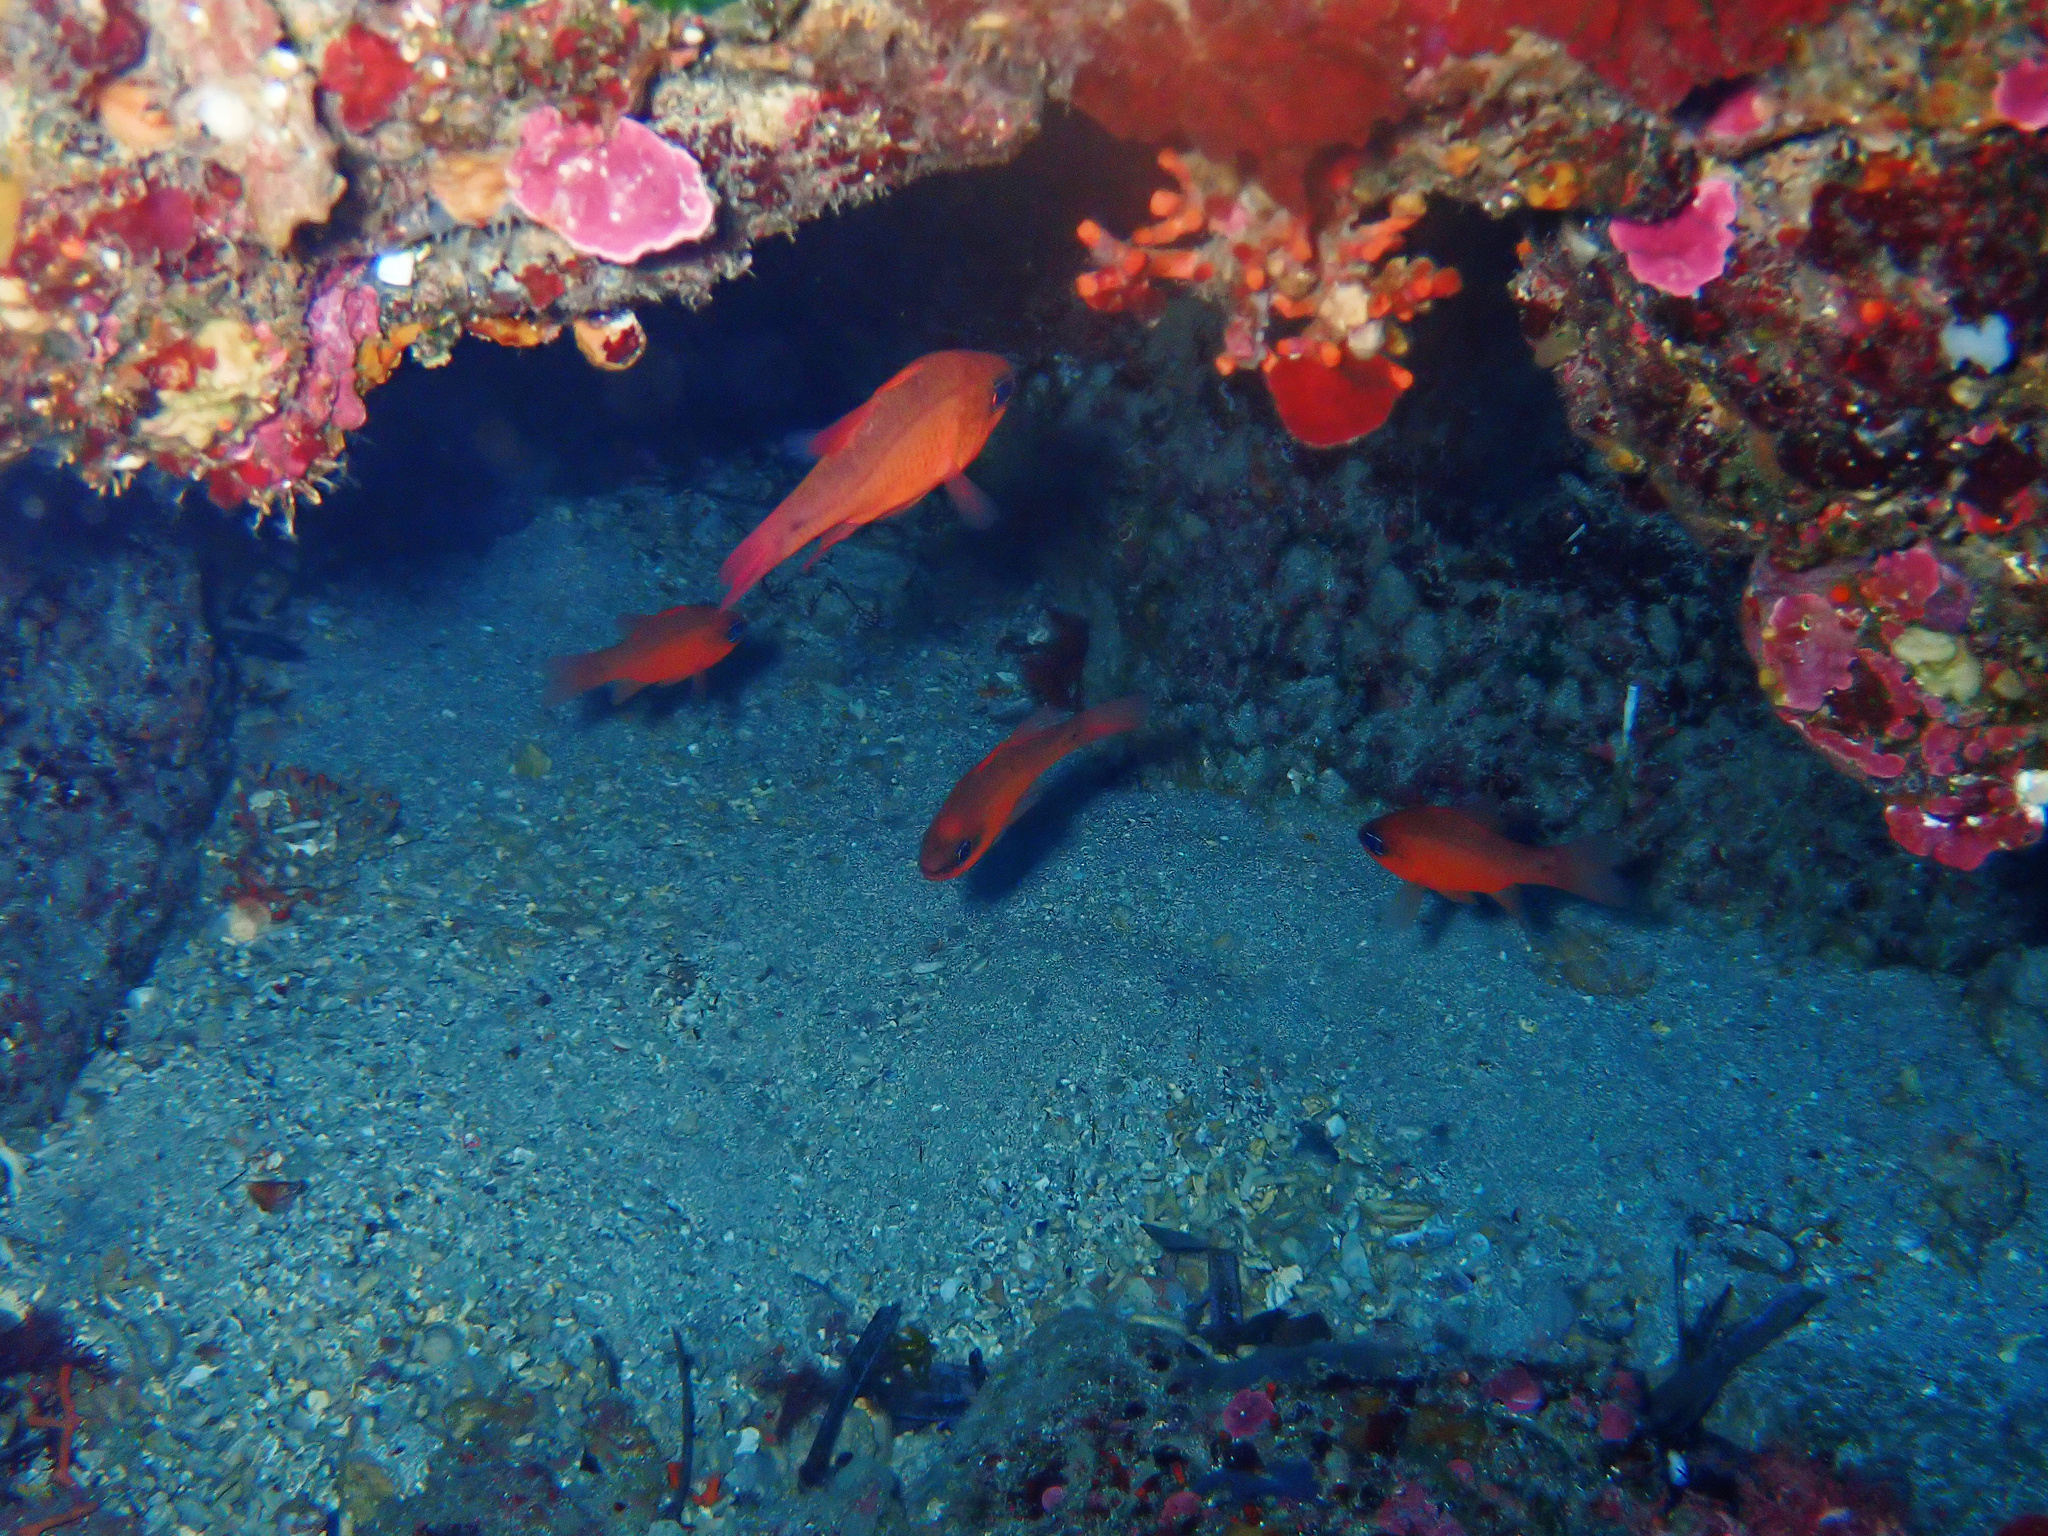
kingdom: Animalia
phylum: Chordata
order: Perciformes
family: Apogonidae
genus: Apogon
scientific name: Apogon imberbis
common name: Cardinal fish
